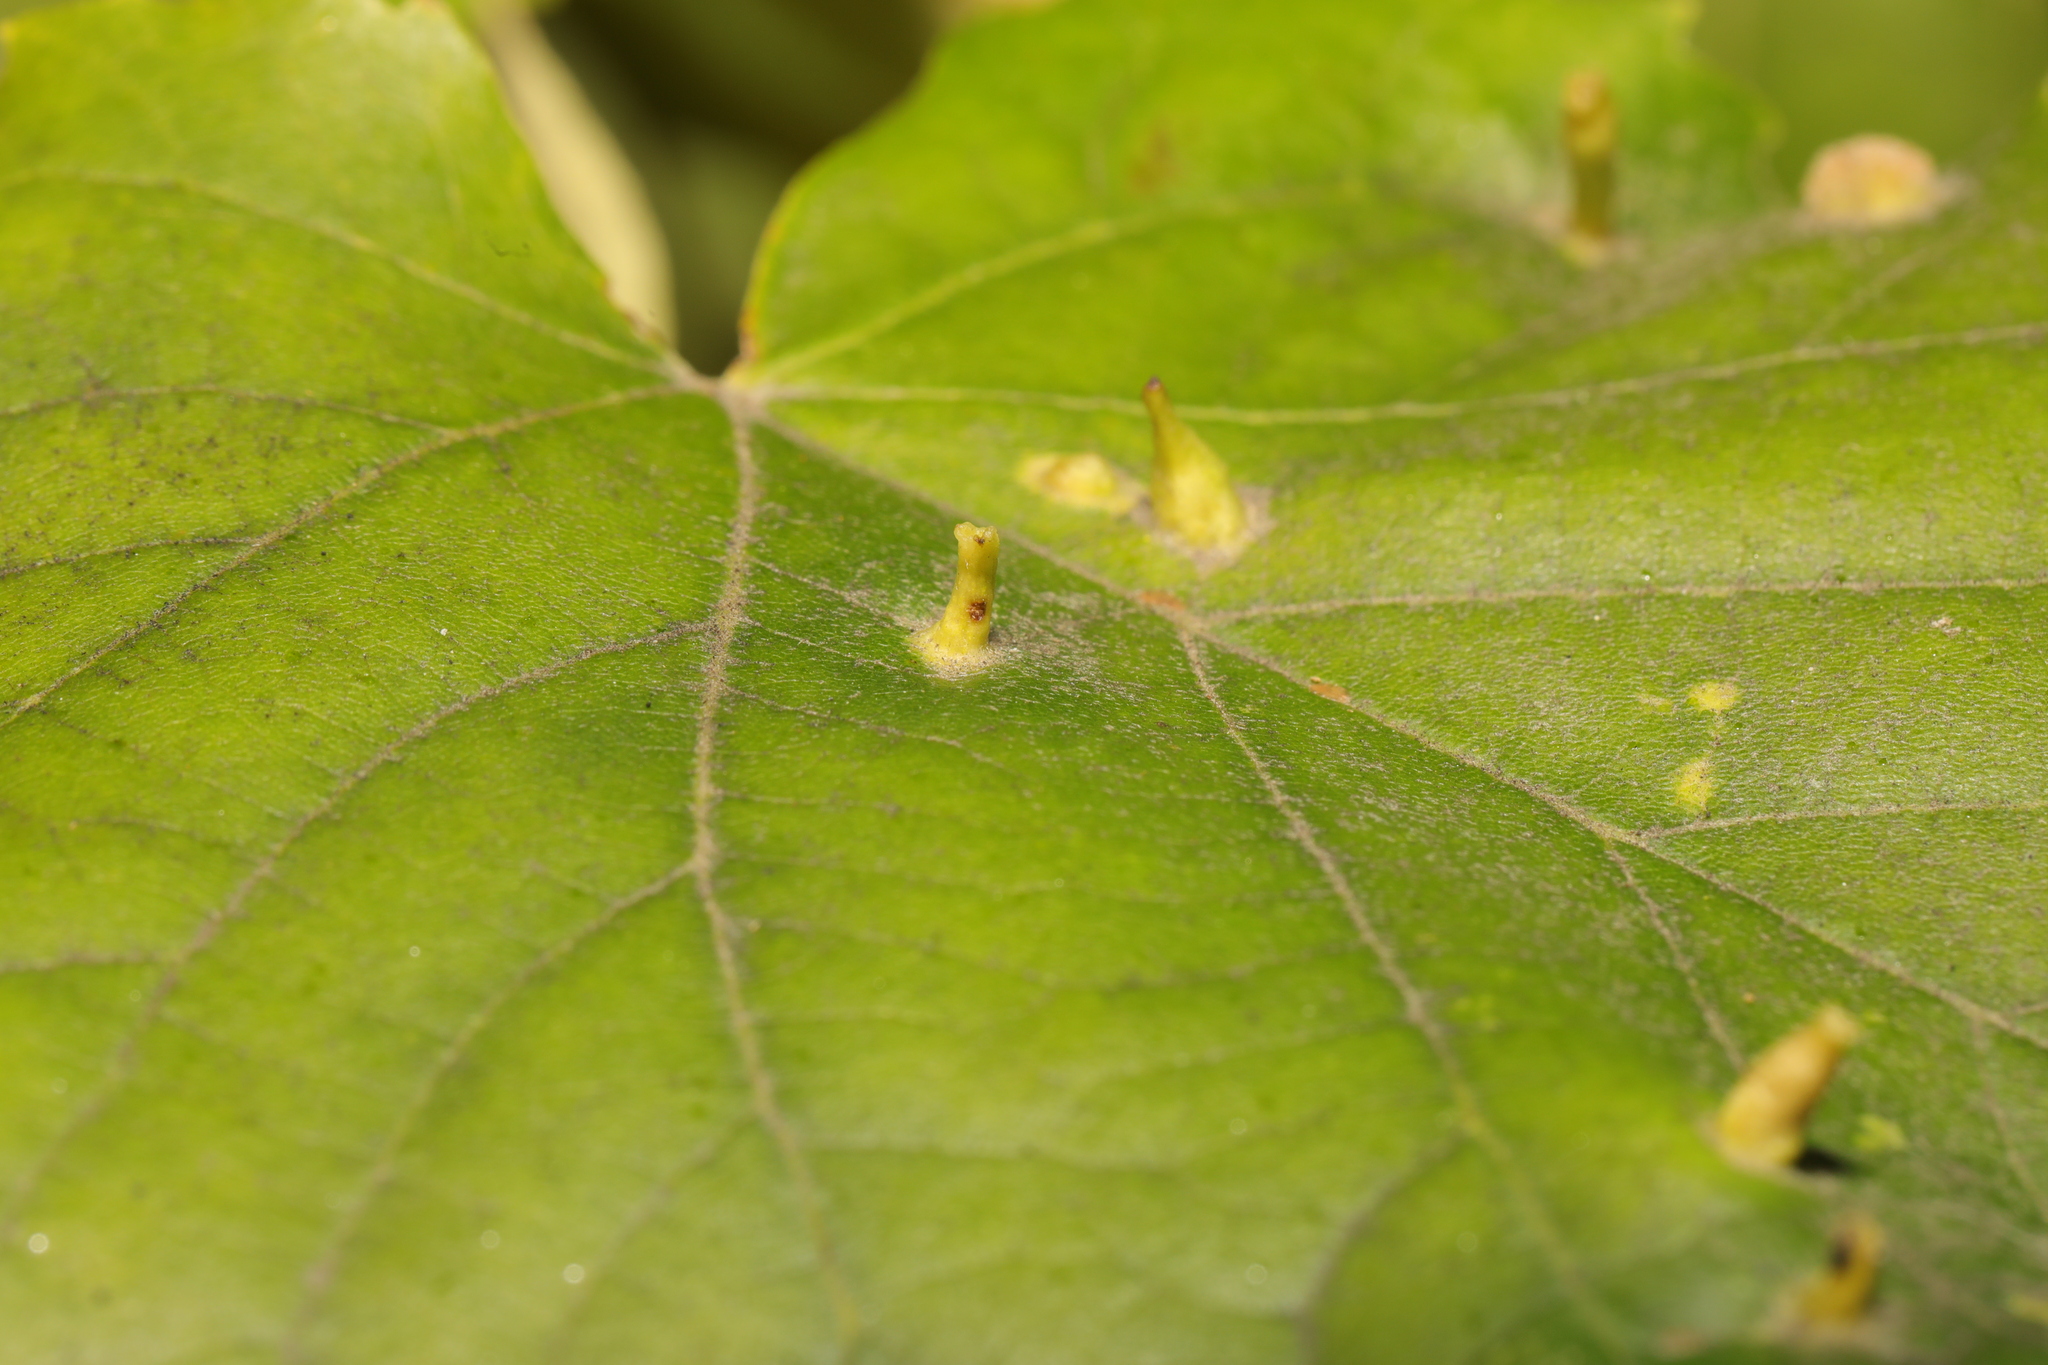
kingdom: Animalia
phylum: Arthropoda
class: Arachnida
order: Trombidiformes
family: Eriophyidae
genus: Eriophyes
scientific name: Eriophyes tiliae
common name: Red nail gall mite
